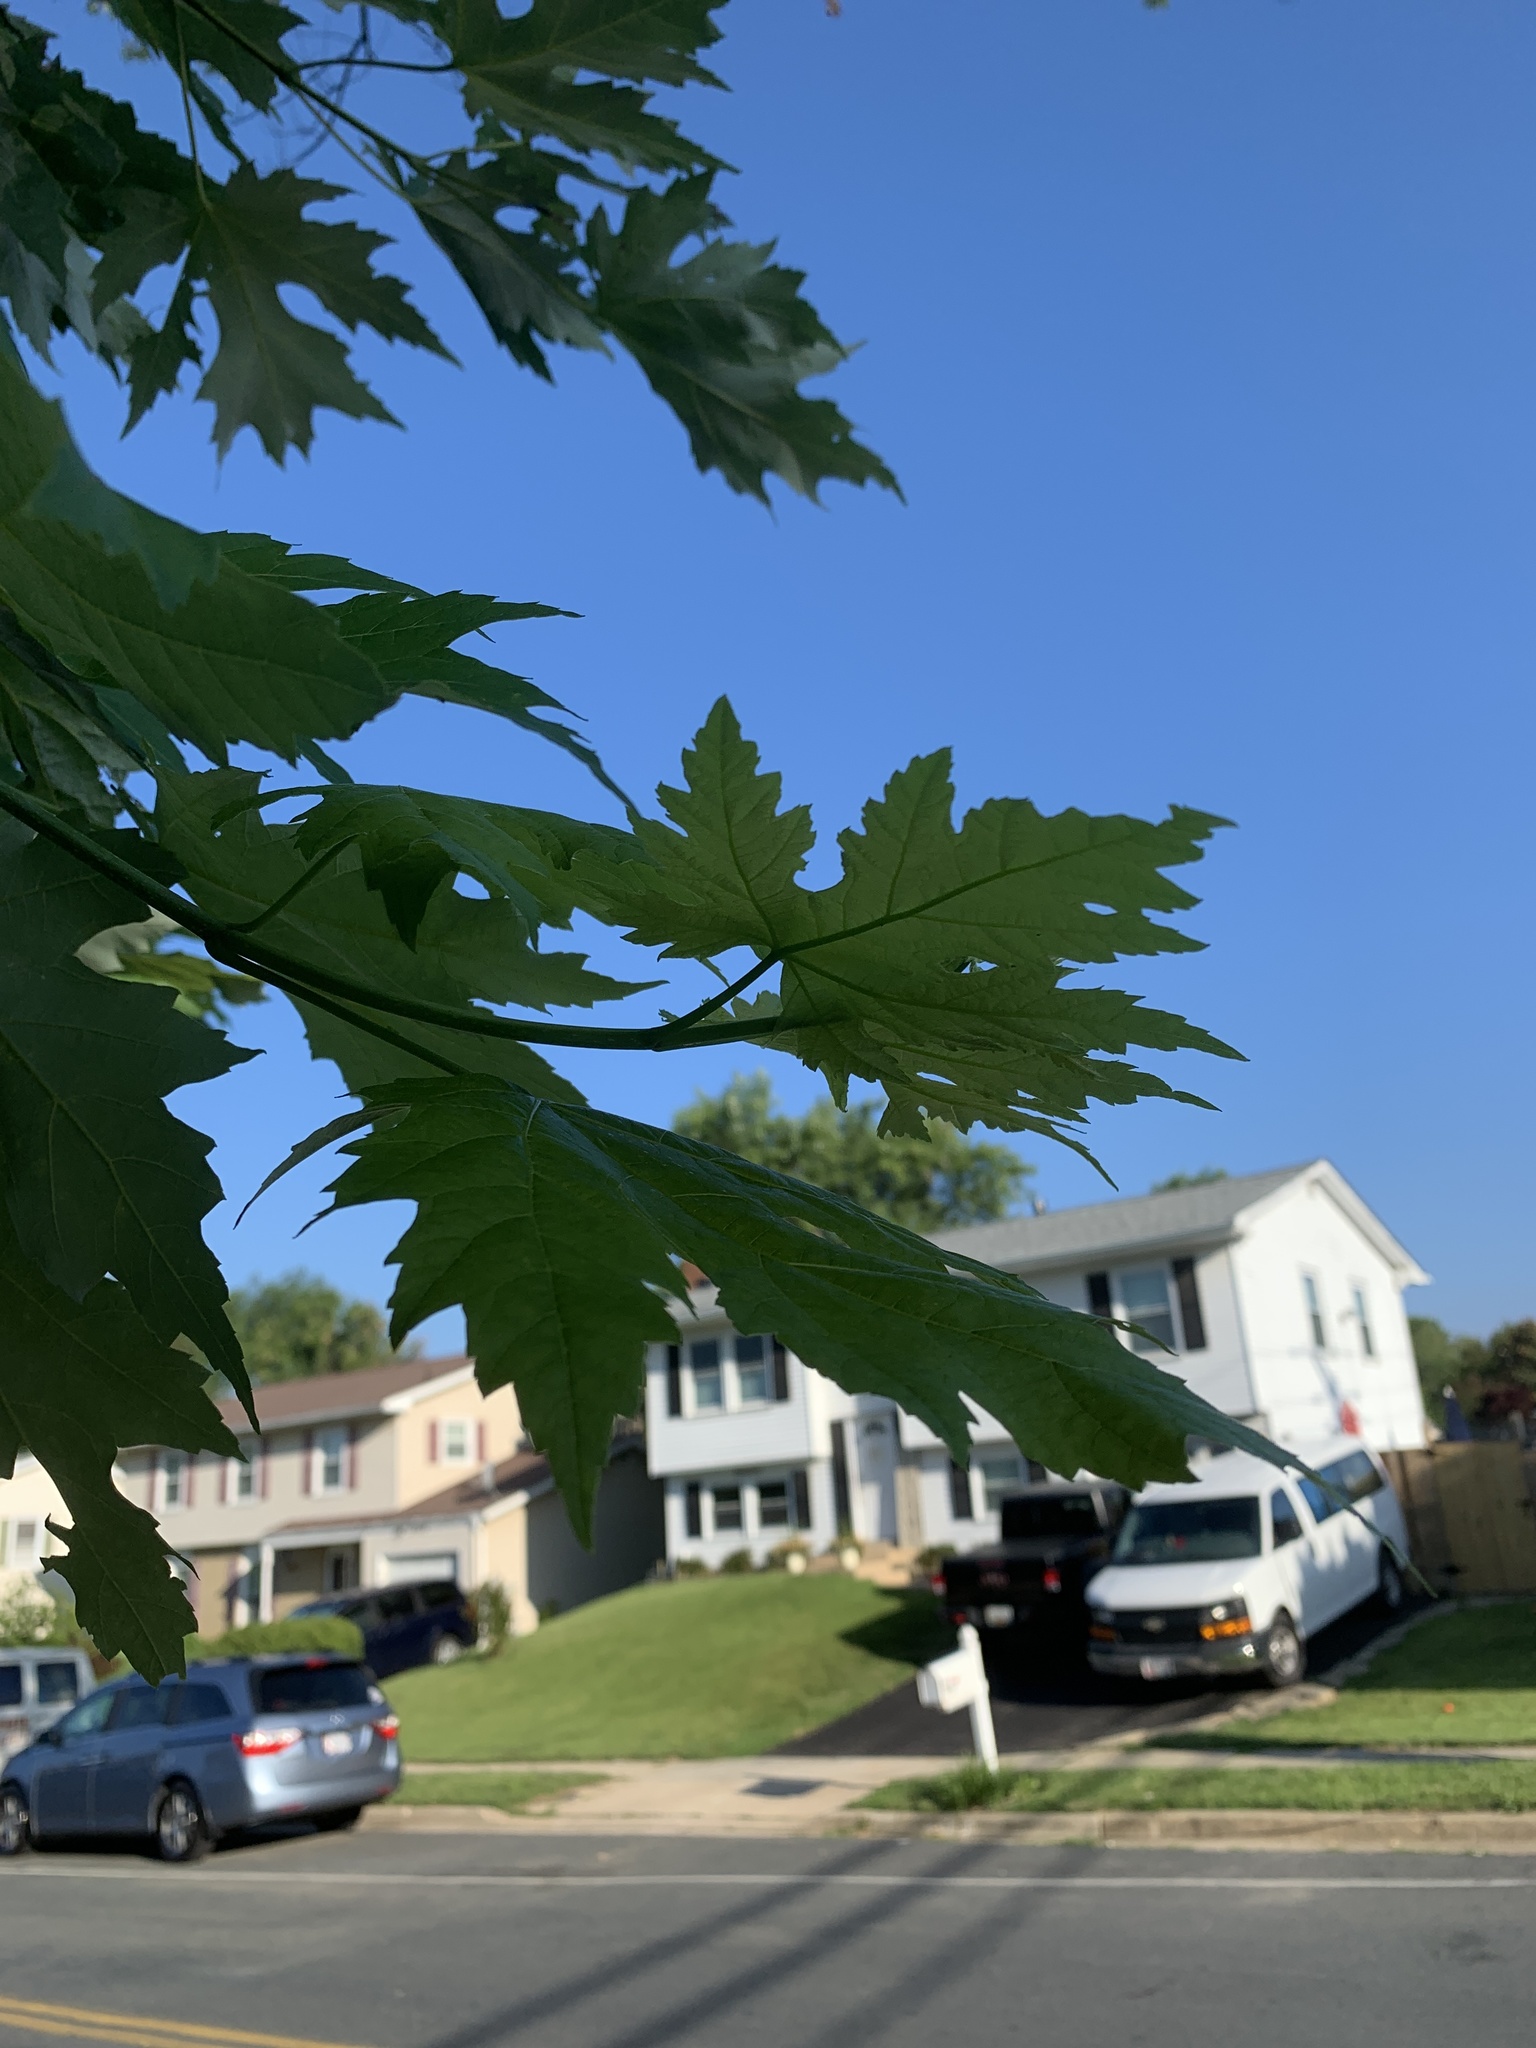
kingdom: Plantae
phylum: Tracheophyta
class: Magnoliopsida
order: Sapindales
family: Sapindaceae
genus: Acer
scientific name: Acer saccharinum
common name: Silver maple
